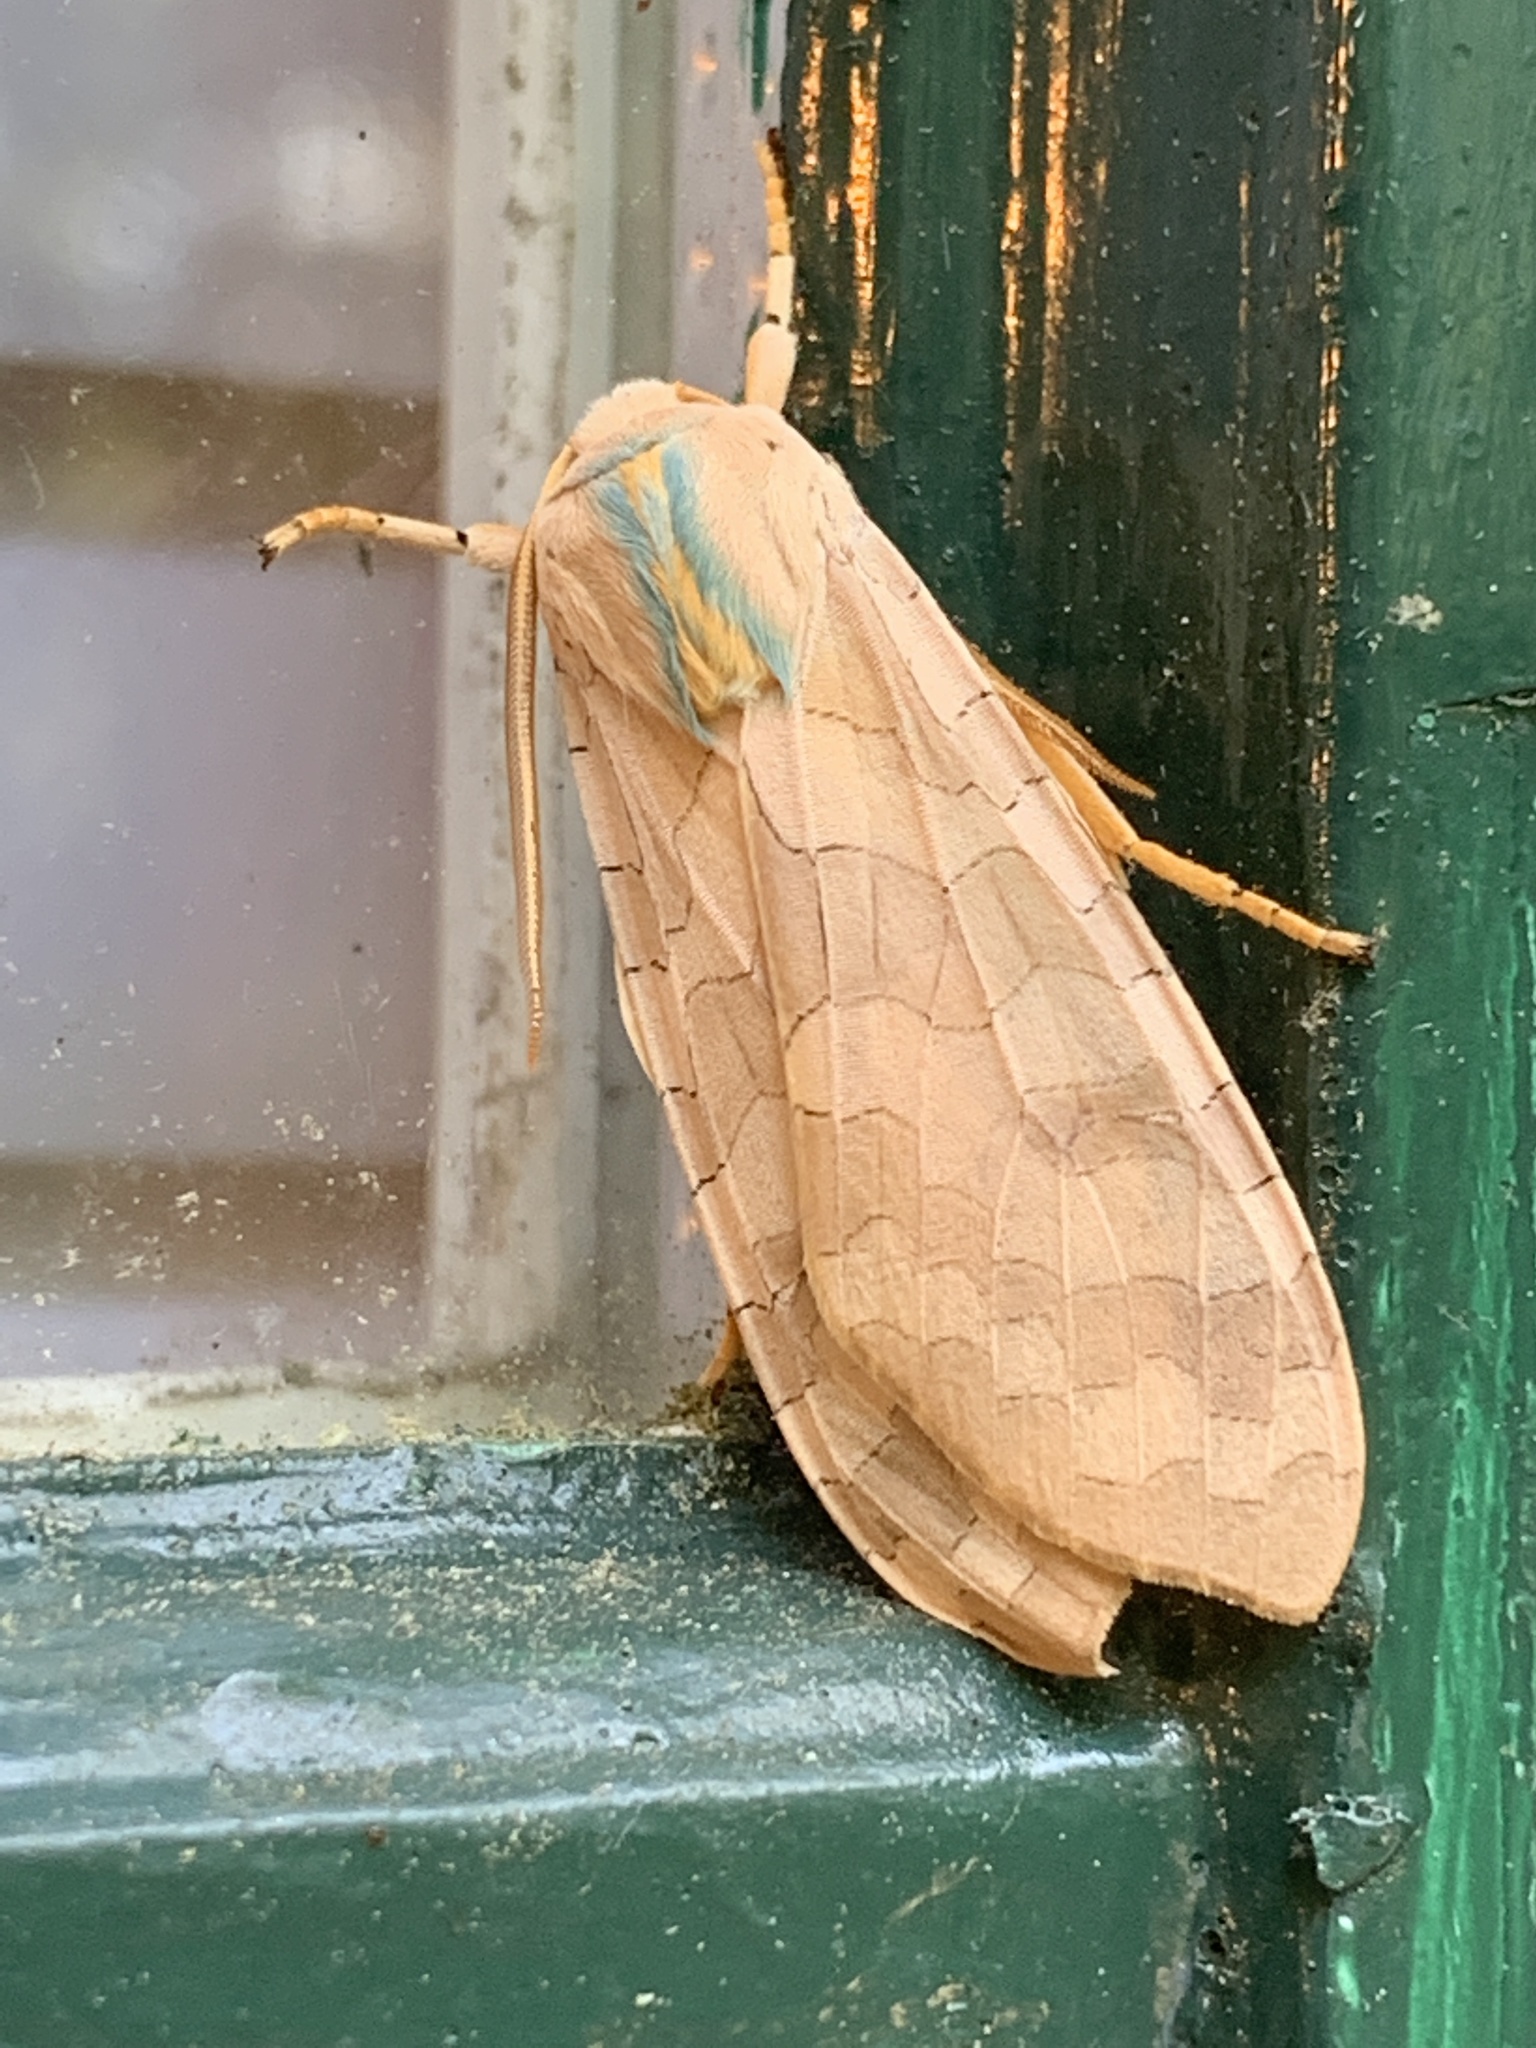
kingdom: Animalia
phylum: Arthropoda
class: Insecta
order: Lepidoptera
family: Erebidae
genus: Halysidota
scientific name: Halysidota
